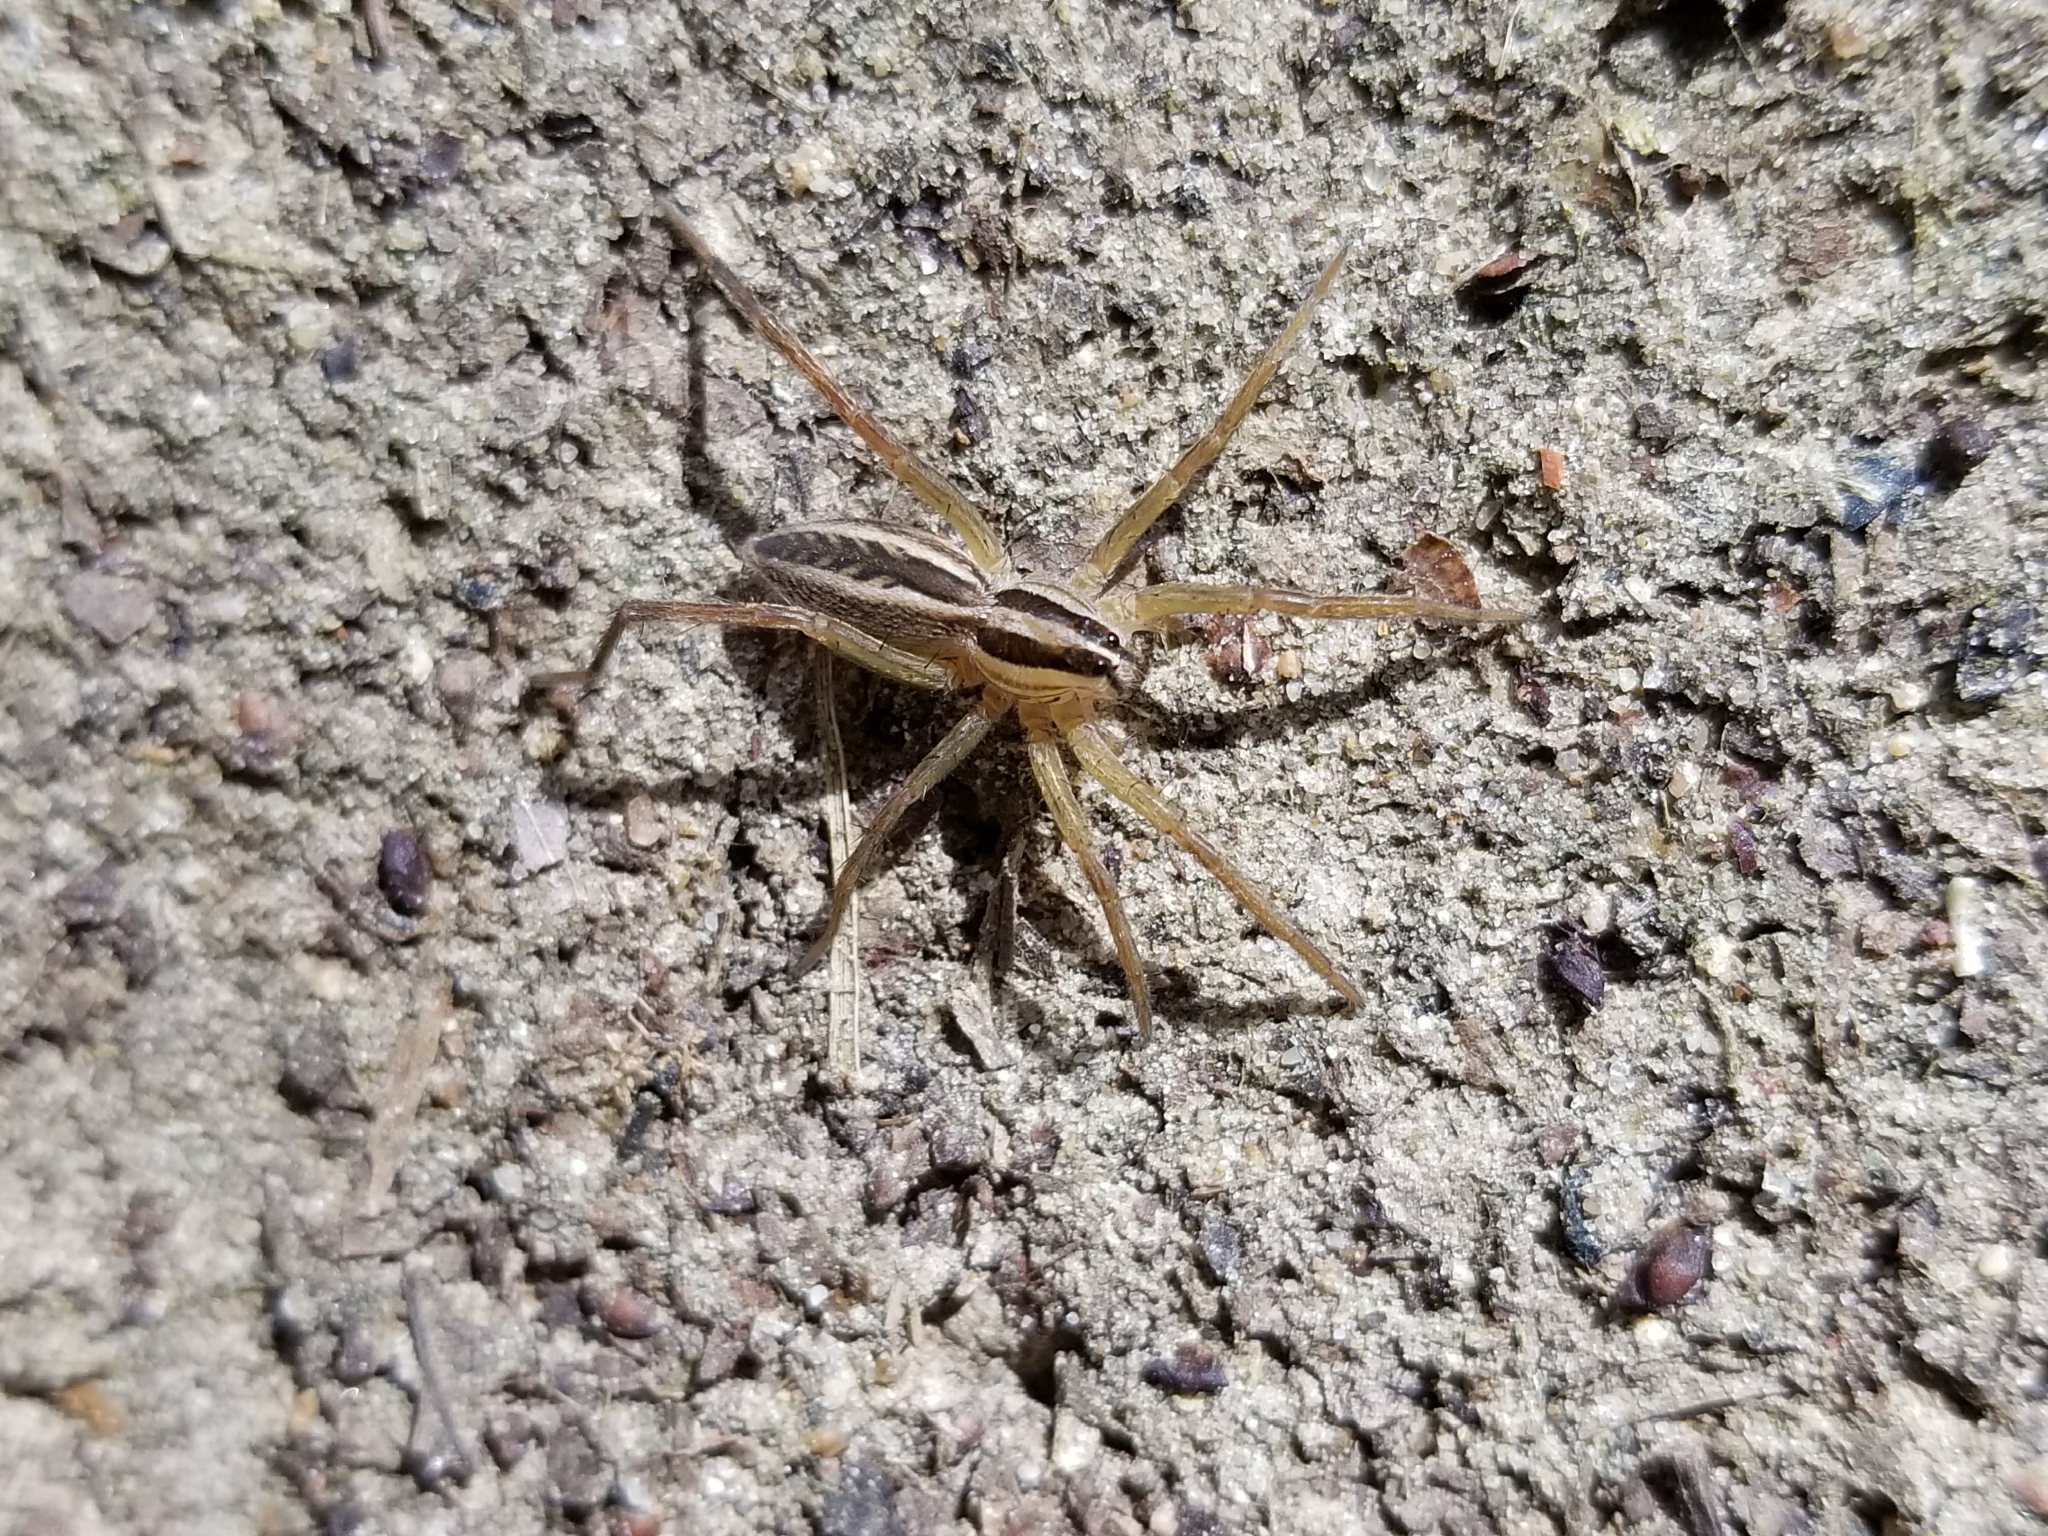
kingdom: Animalia
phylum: Arthropoda
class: Arachnida
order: Araneae
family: Lycosidae
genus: Rabidosa
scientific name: Rabidosa rabida
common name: Rabid wolf spider
